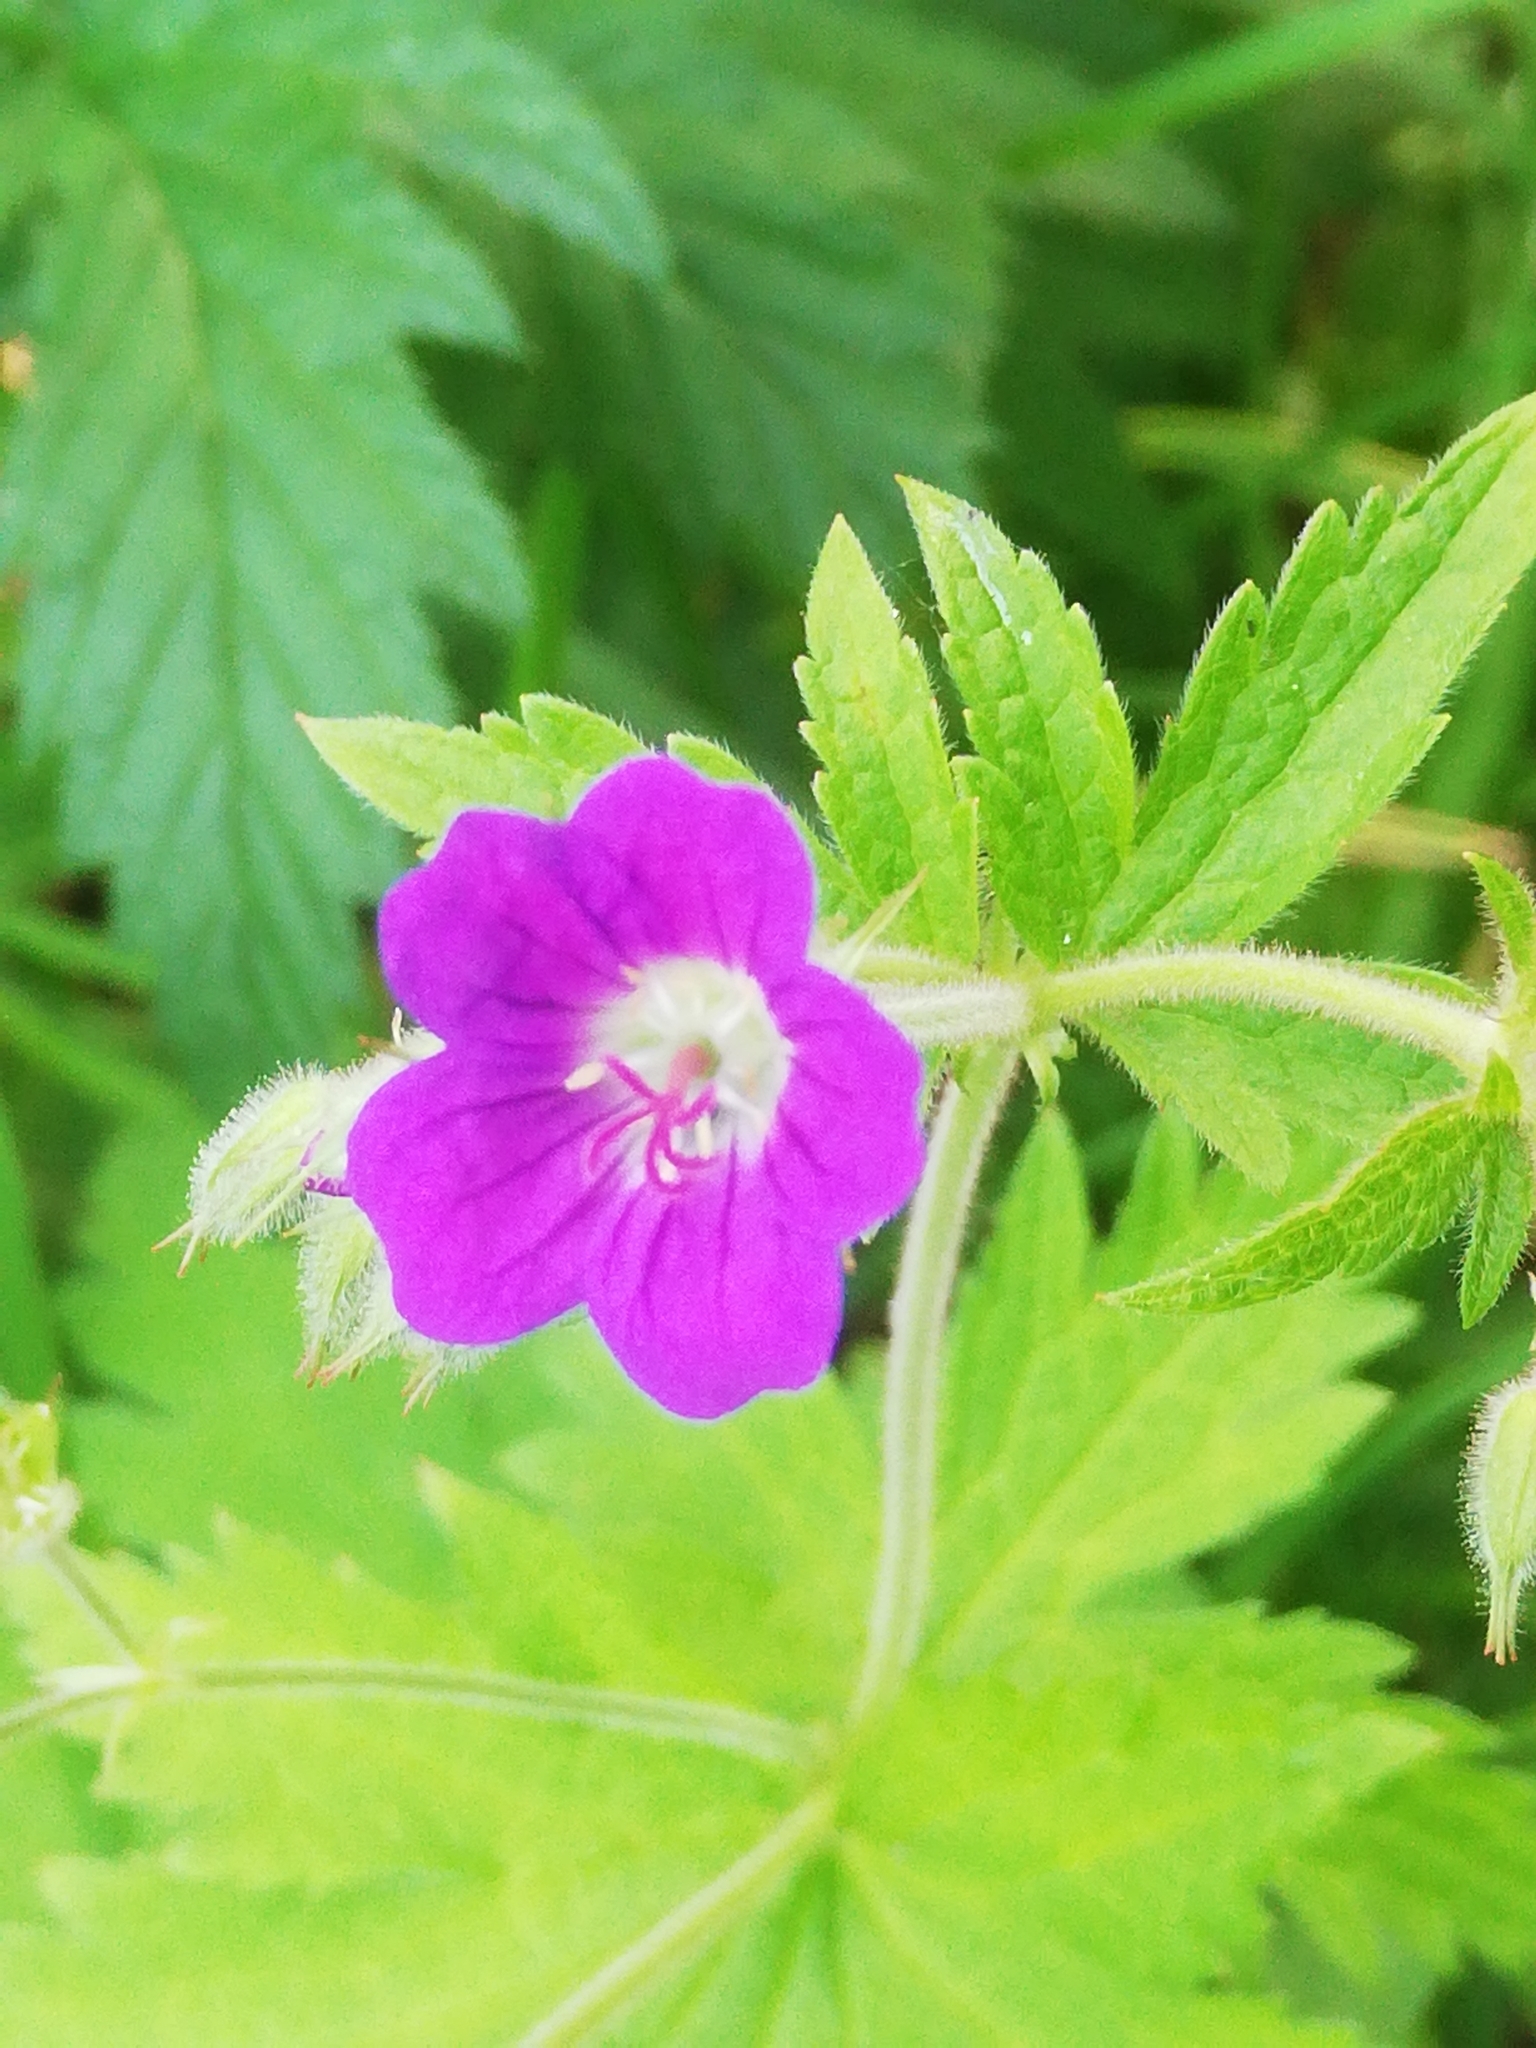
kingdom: Plantae
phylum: Tracheophyta
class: Magnoliopsida
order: Geraniales
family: Geraniaceae
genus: Geranium
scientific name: Geranium sylvaticum
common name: Wood crane's-bill
